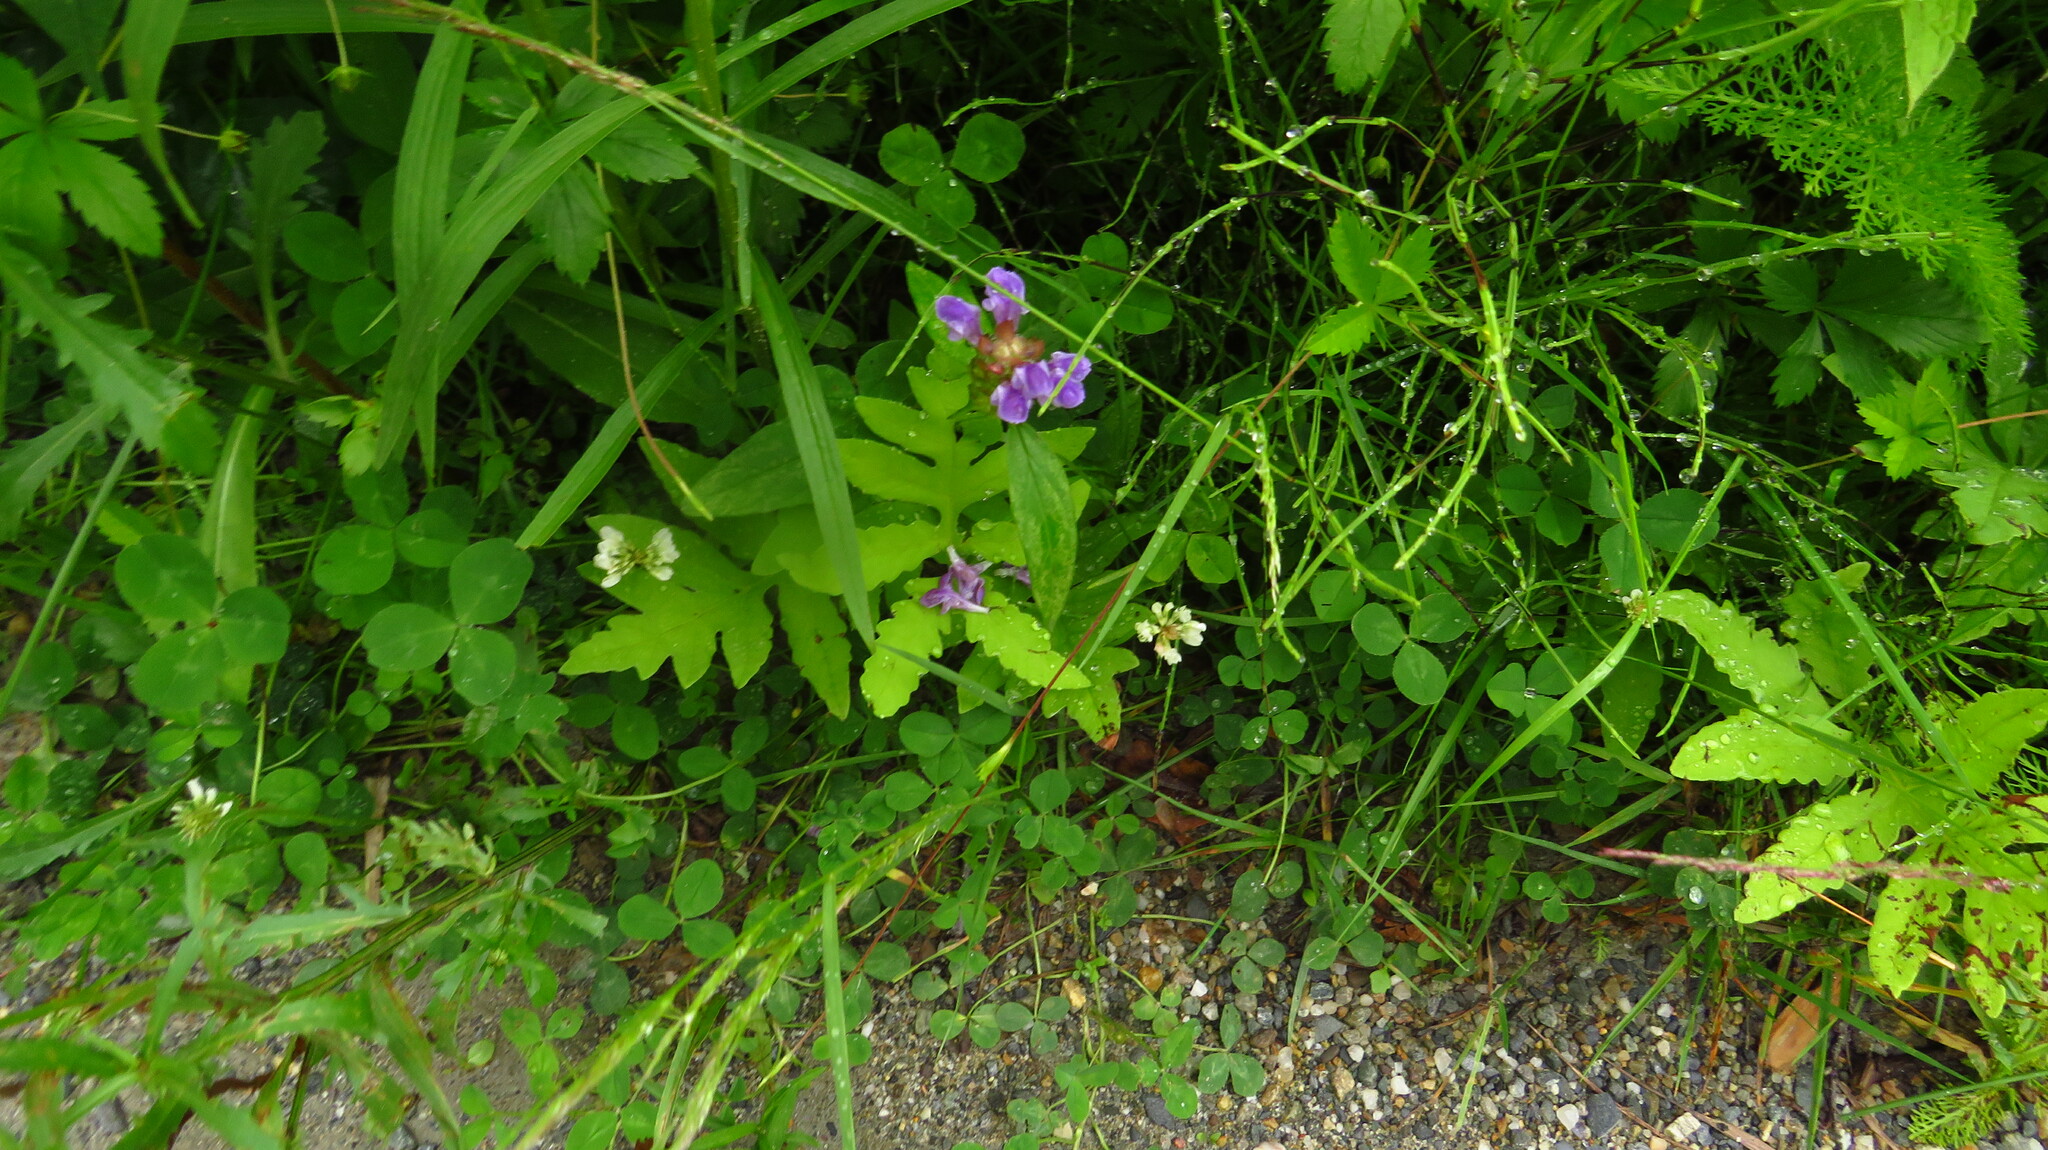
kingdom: Plantae
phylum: Tracheophyta
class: Magnoliopsida
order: Lamiales
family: Lamiaceae
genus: Prunella
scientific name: Prunella vulgaris
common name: Heal-all
